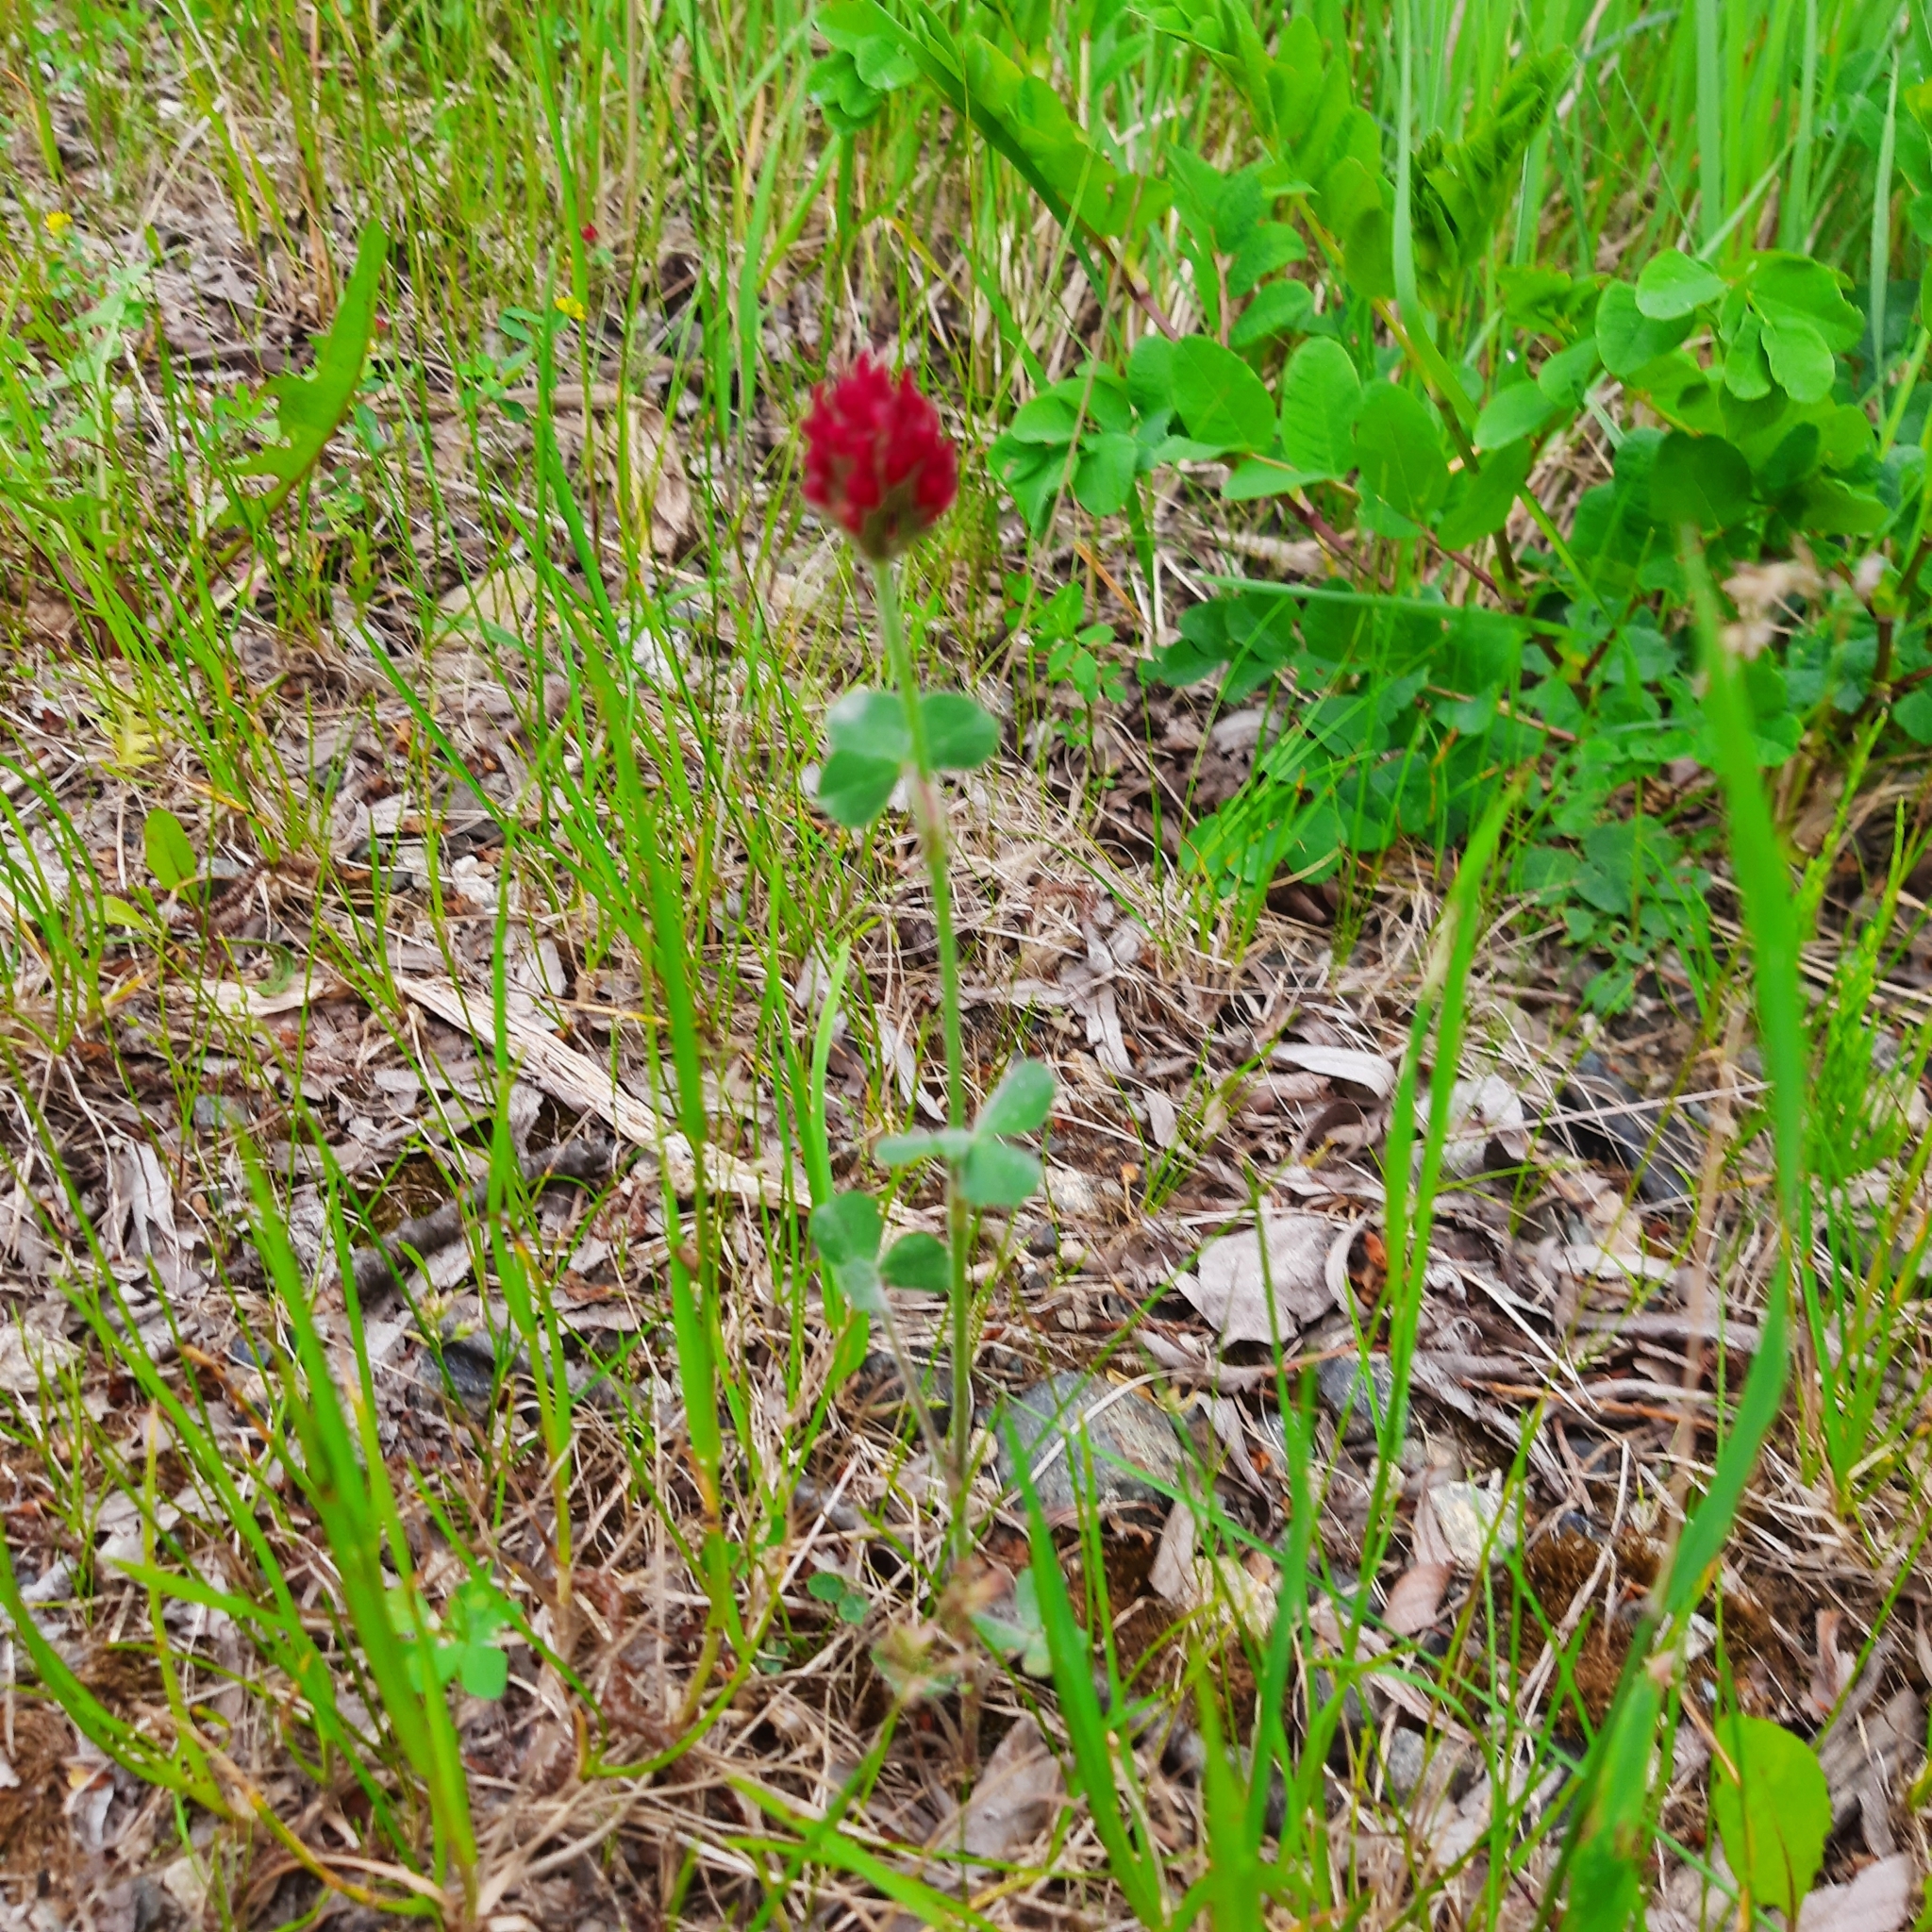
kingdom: Plantae
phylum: Tracheophyta
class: Magnoliopsida
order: Fabales
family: Fabaceae
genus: Trifolium
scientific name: Trifolium incarnatum
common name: Crimson clover
